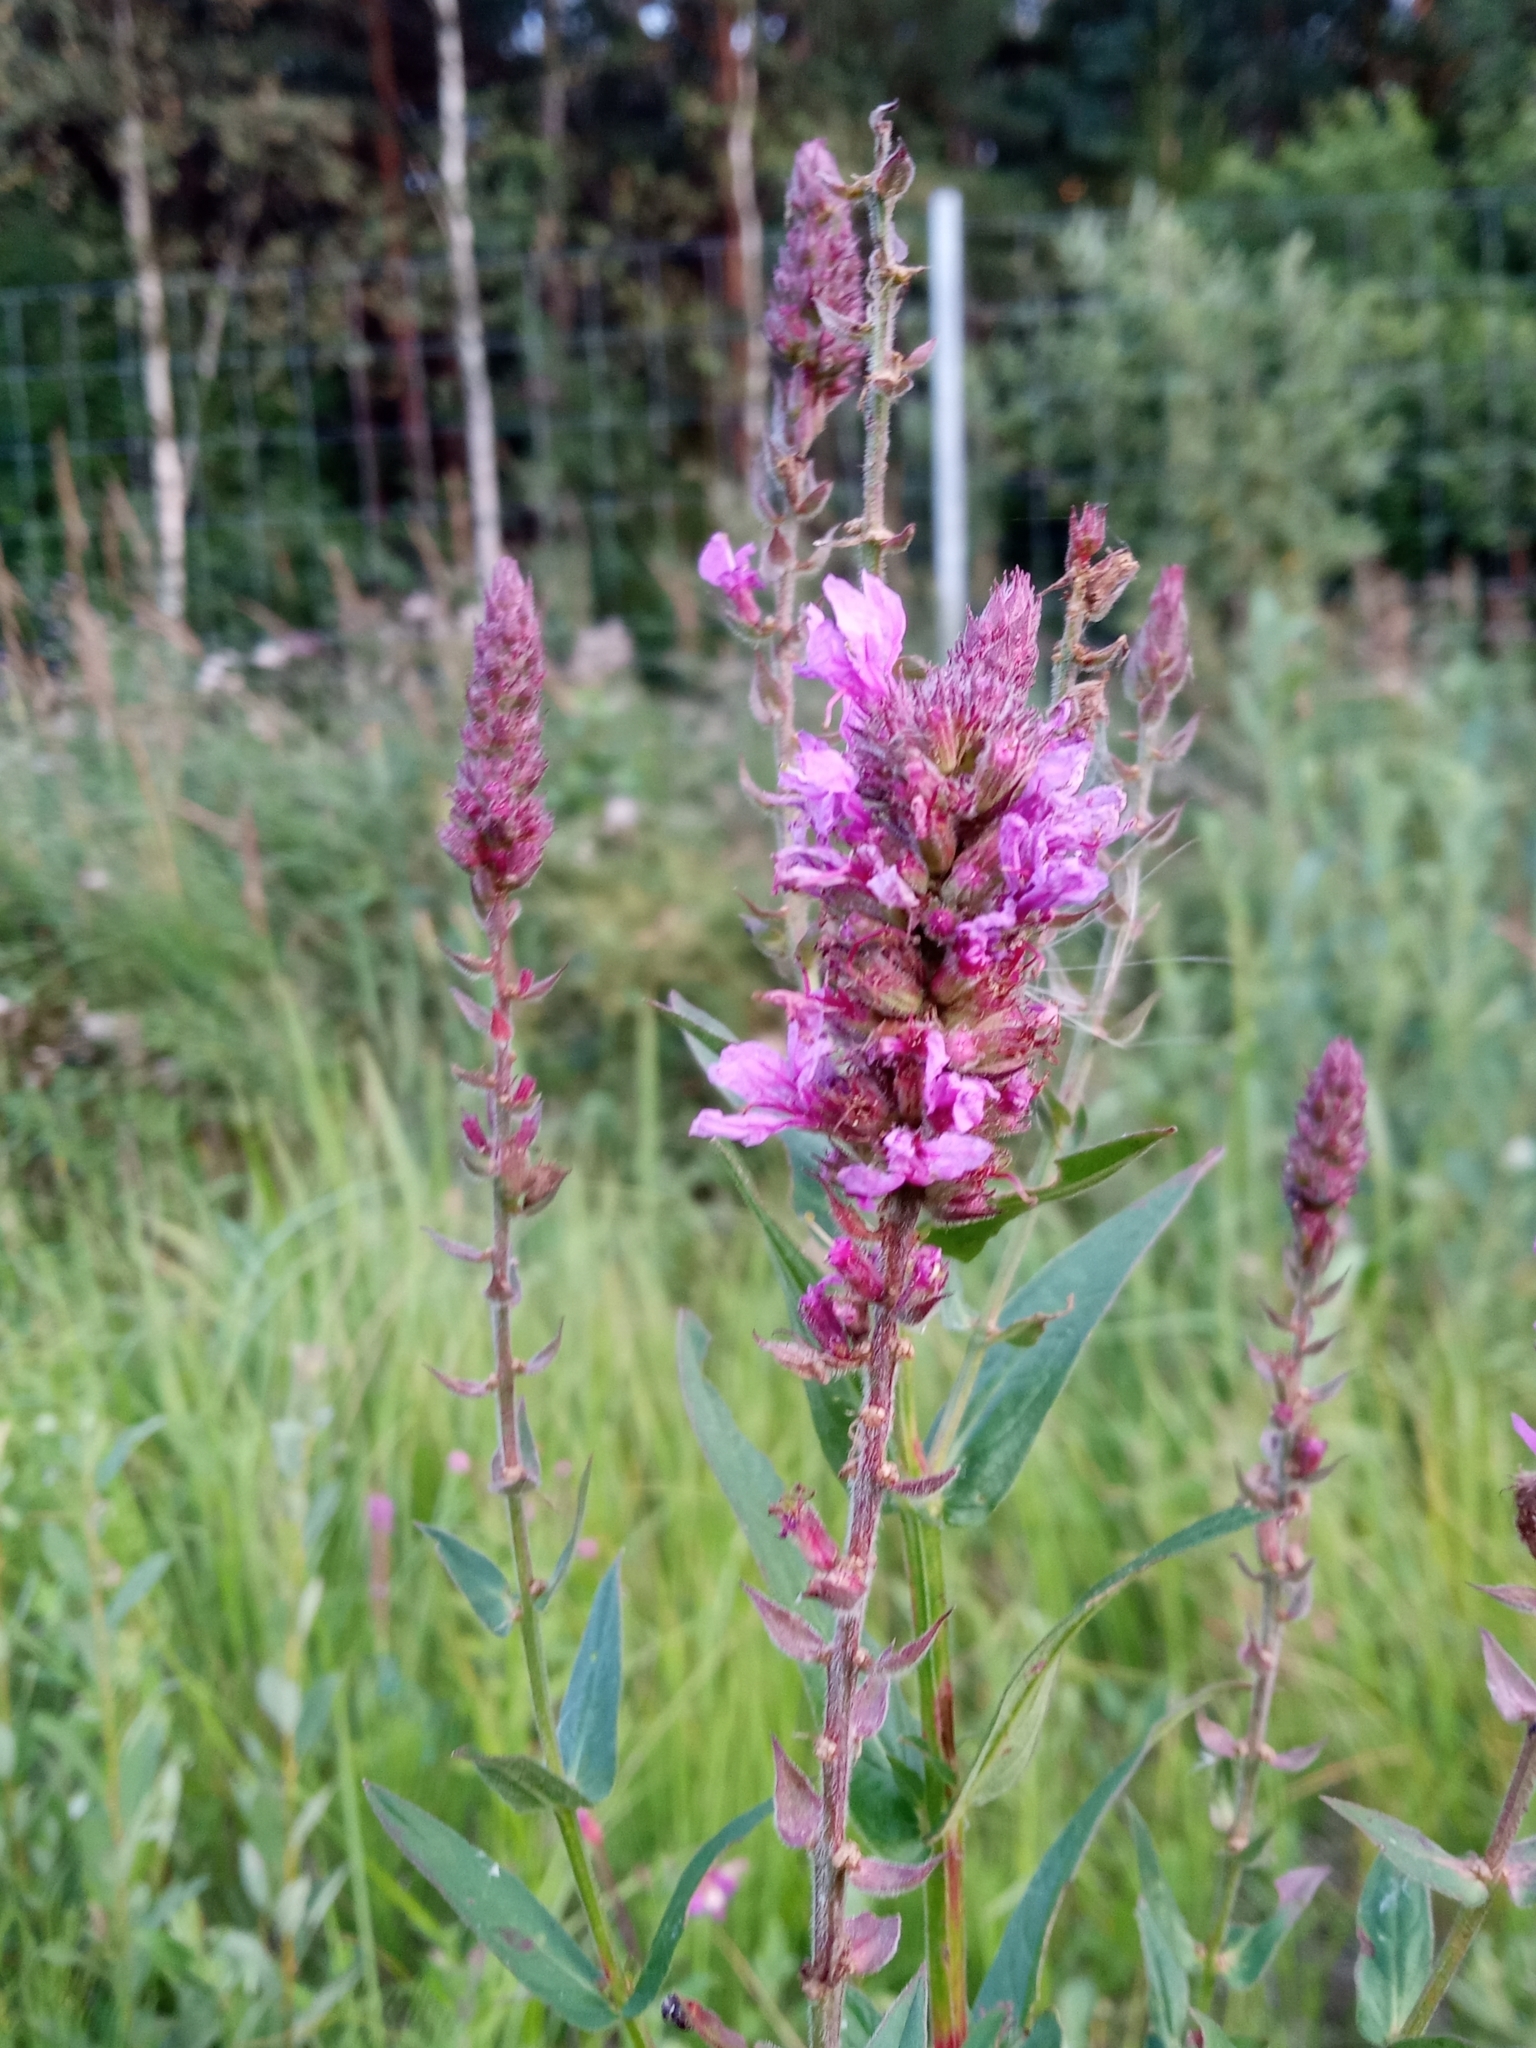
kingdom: Plantae
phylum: Tracheophyta
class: Magnoliopsida
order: Myrtales
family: Lythraceae
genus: Lythrum
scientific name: Lythrum salicaria
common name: Purple loosestrife
